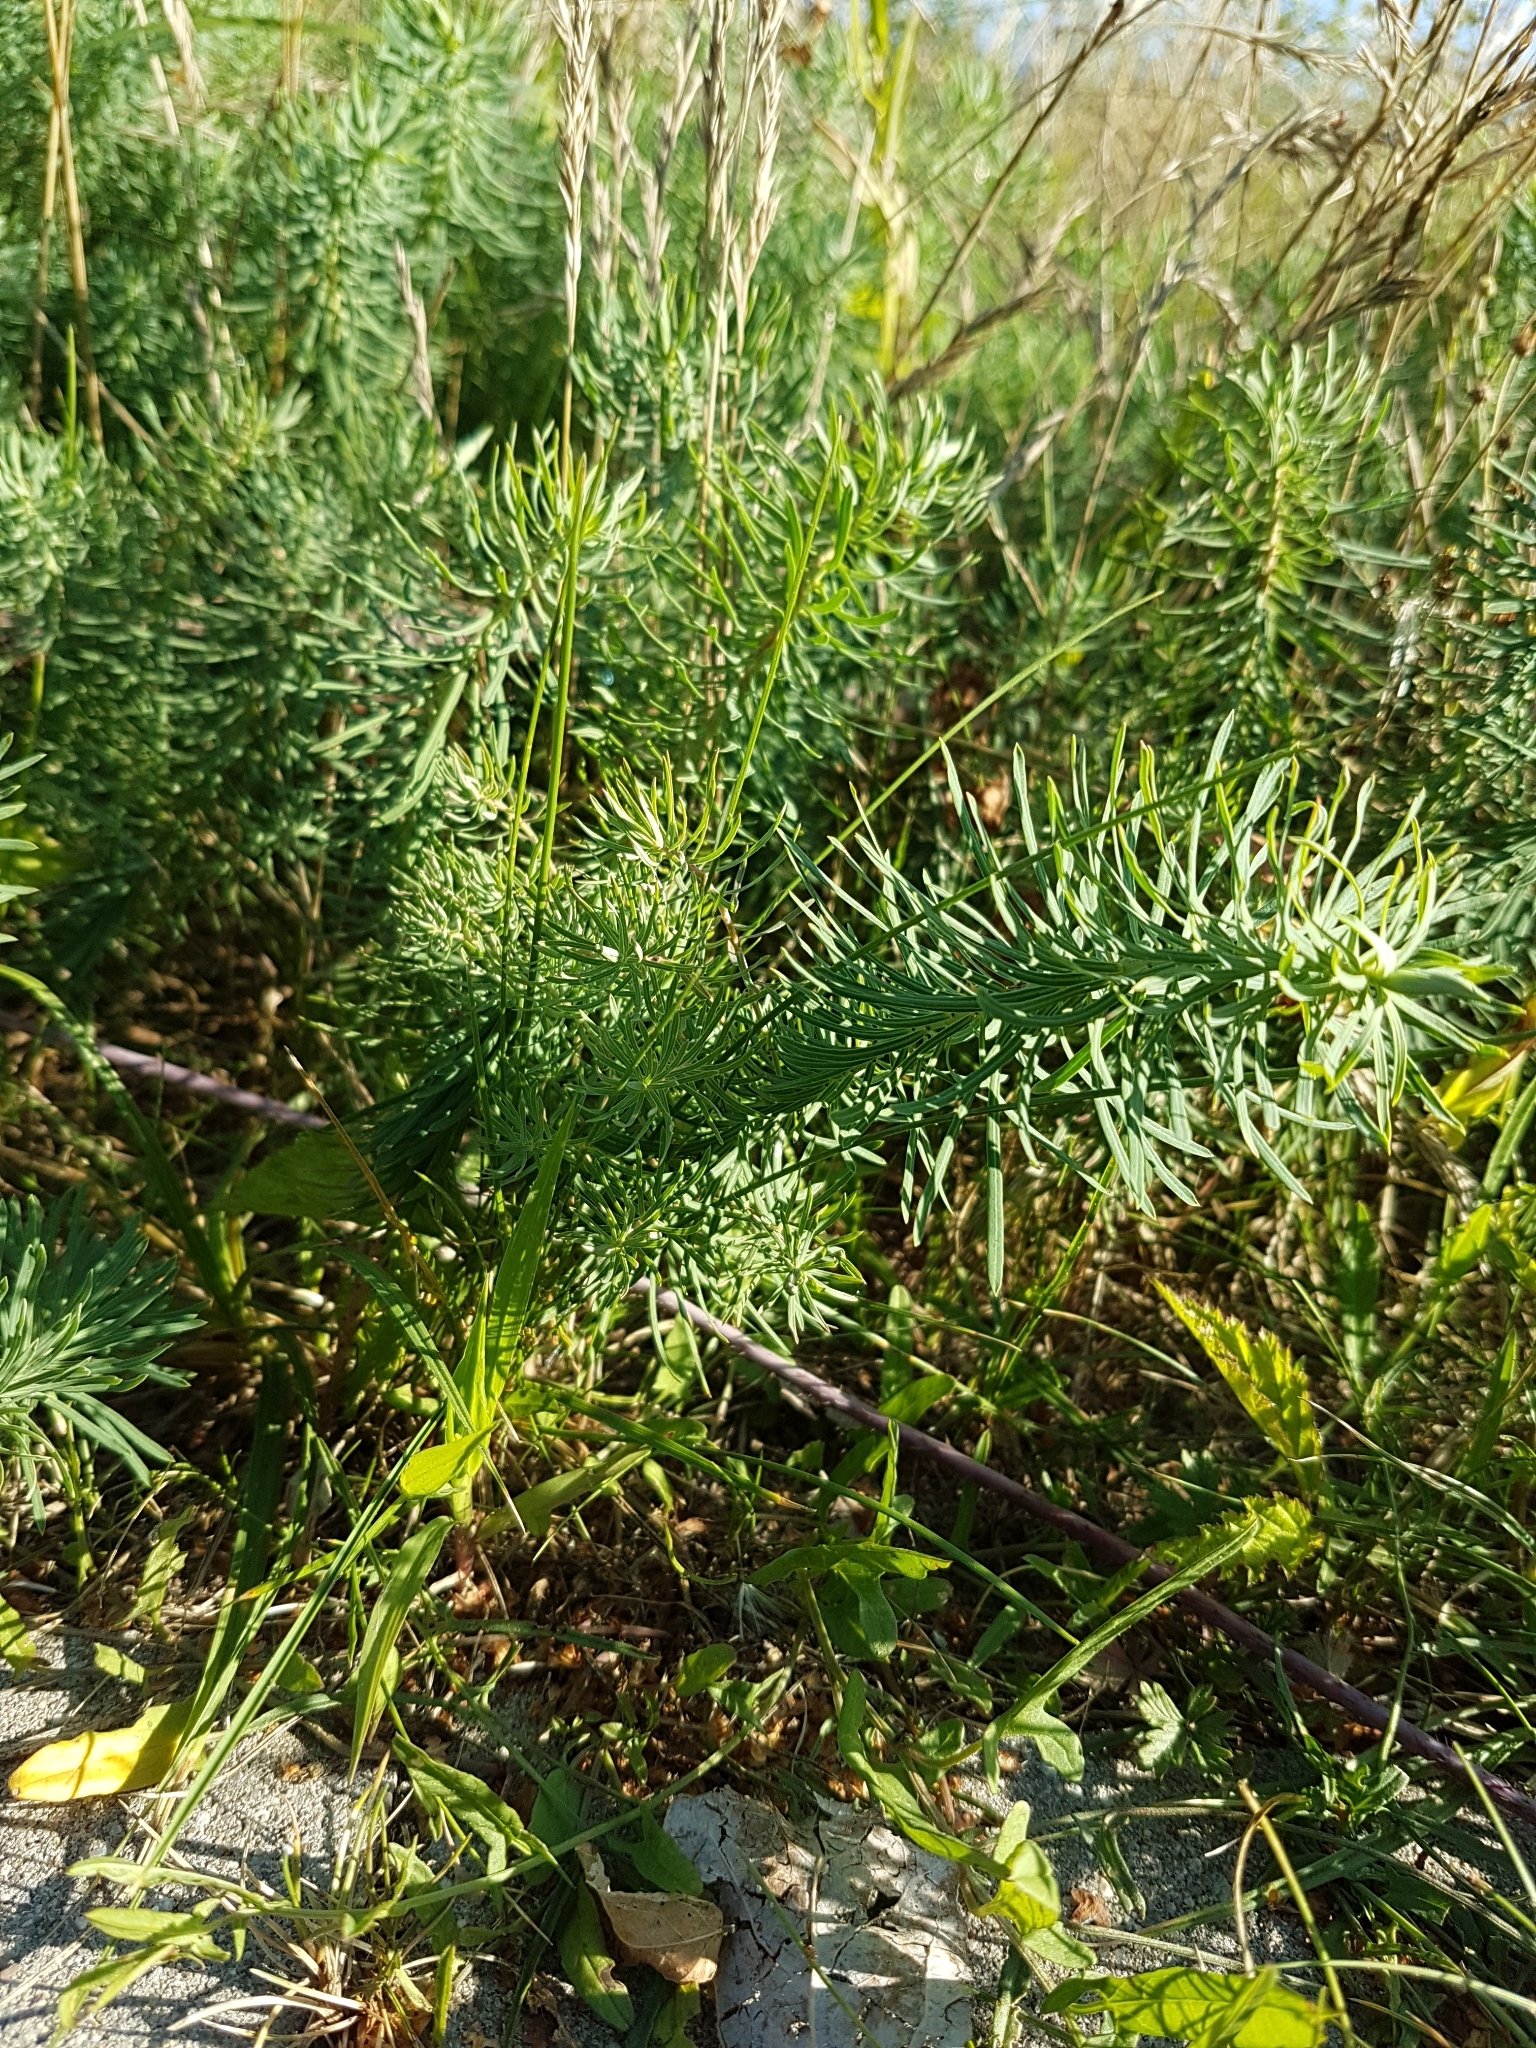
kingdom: Plantae
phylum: Tracheophyta
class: Magnoliopsida
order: Malpighiales
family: Euphorbiaceae
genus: Euphorbia
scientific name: Euphorbia cyparissias
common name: Cypress spurge
